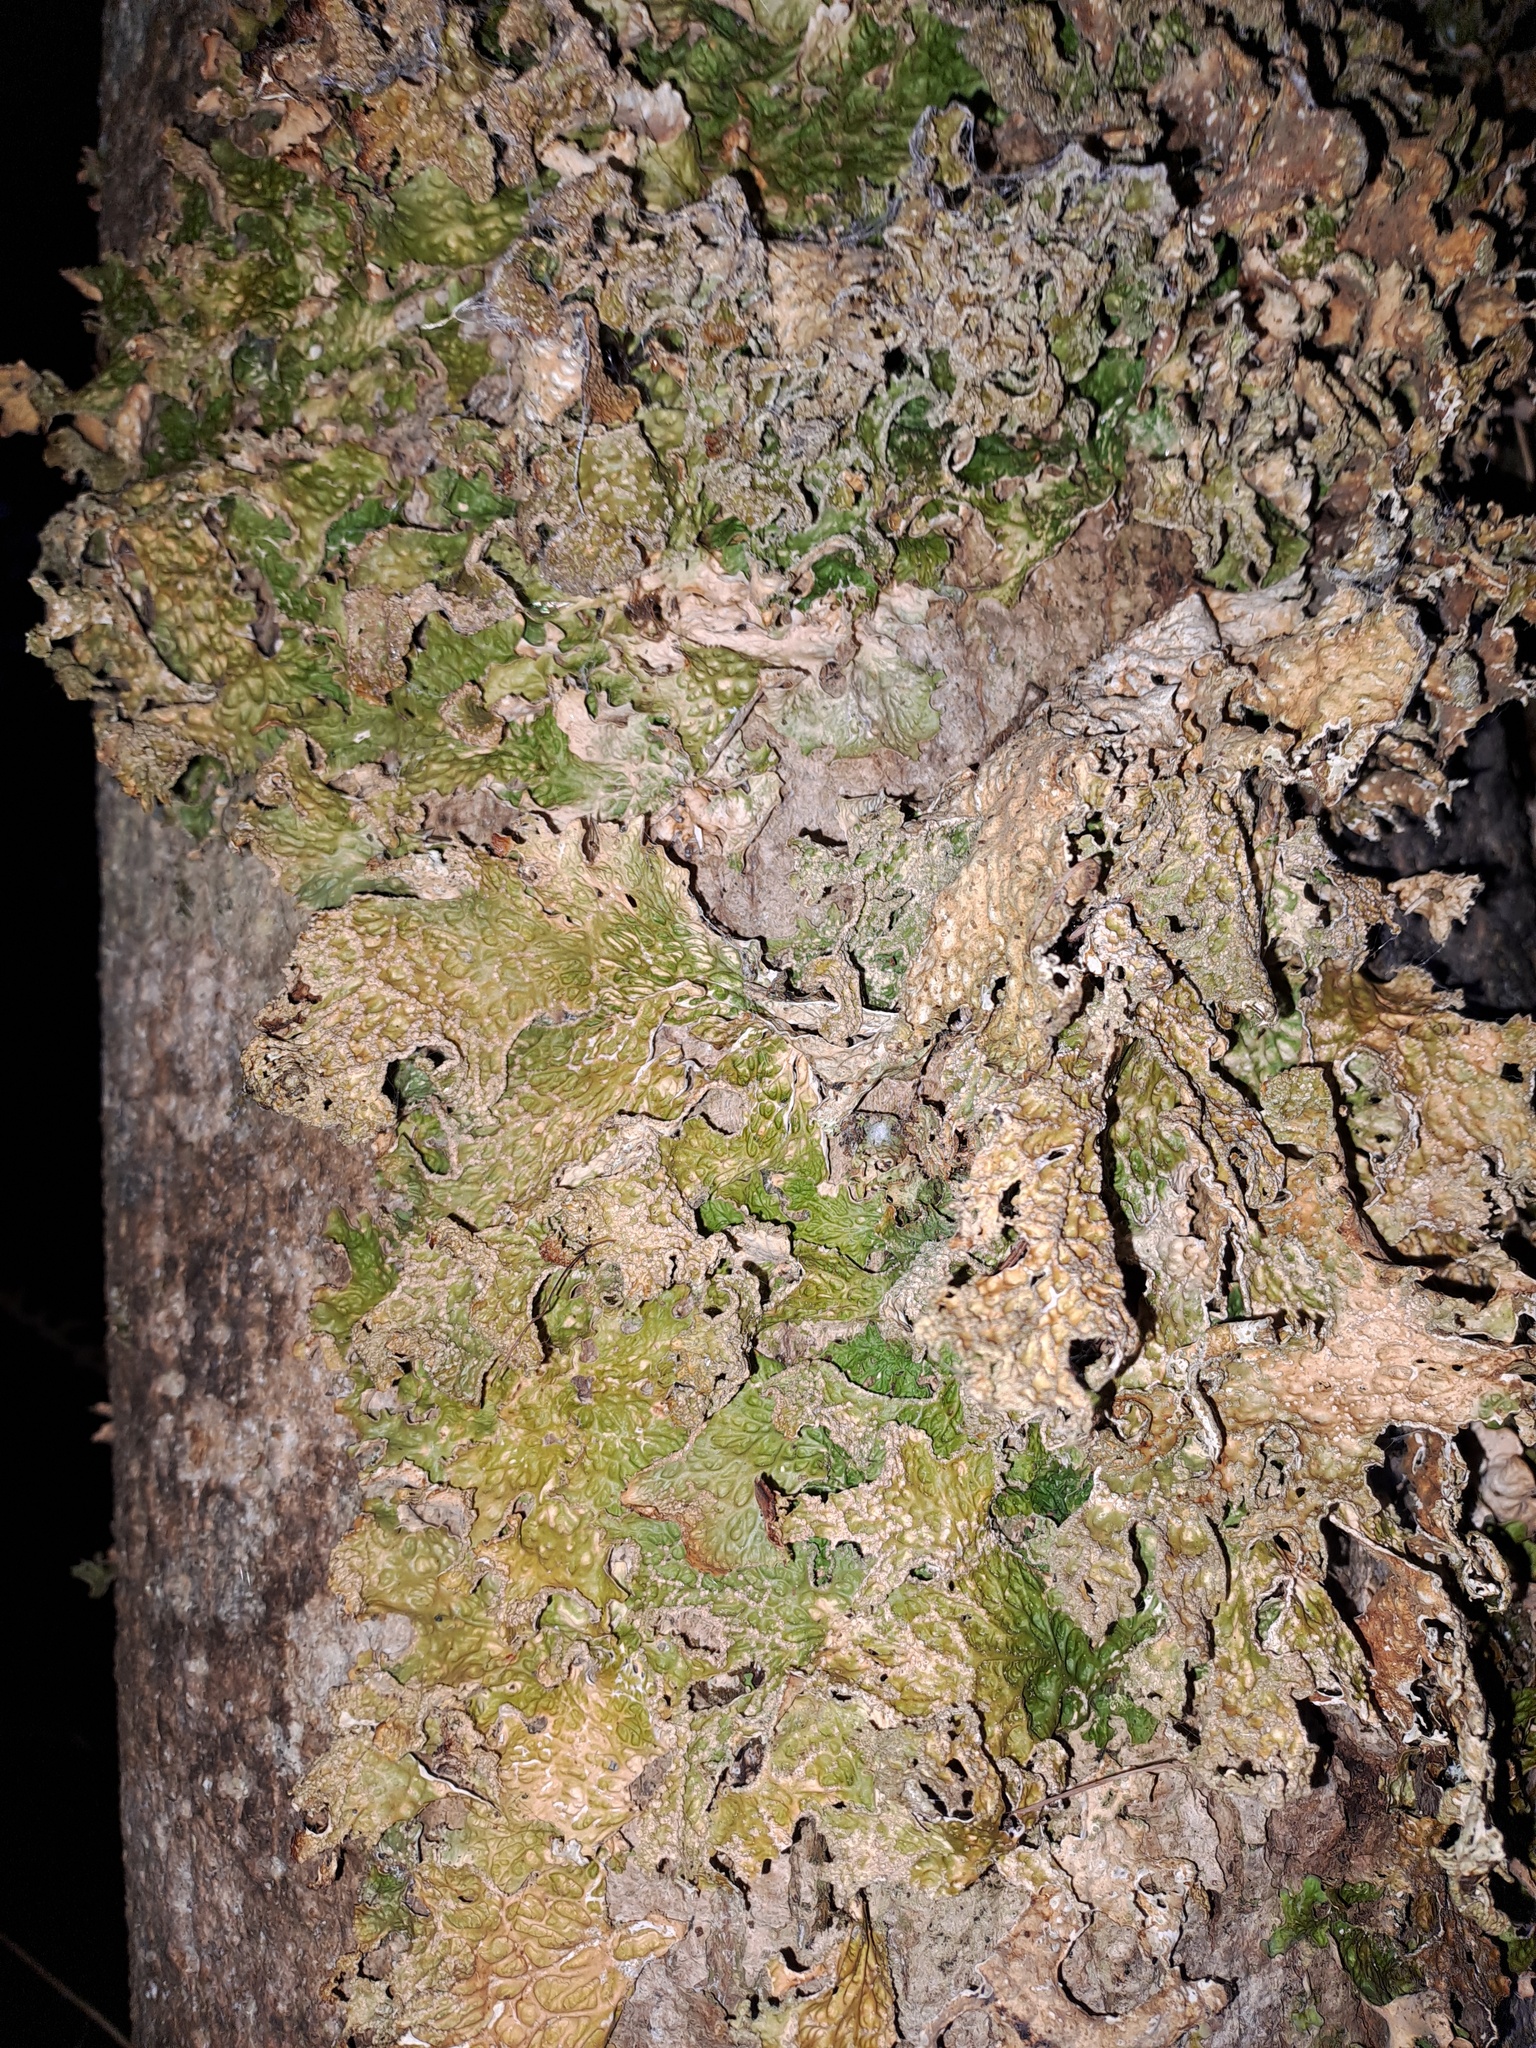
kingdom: Fungi
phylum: Ascomycota
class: Lecanoromycetes
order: Peltigerales
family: Lobariaceae
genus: Lobaria
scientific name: Lobaria pulmonaria
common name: Lungwort
